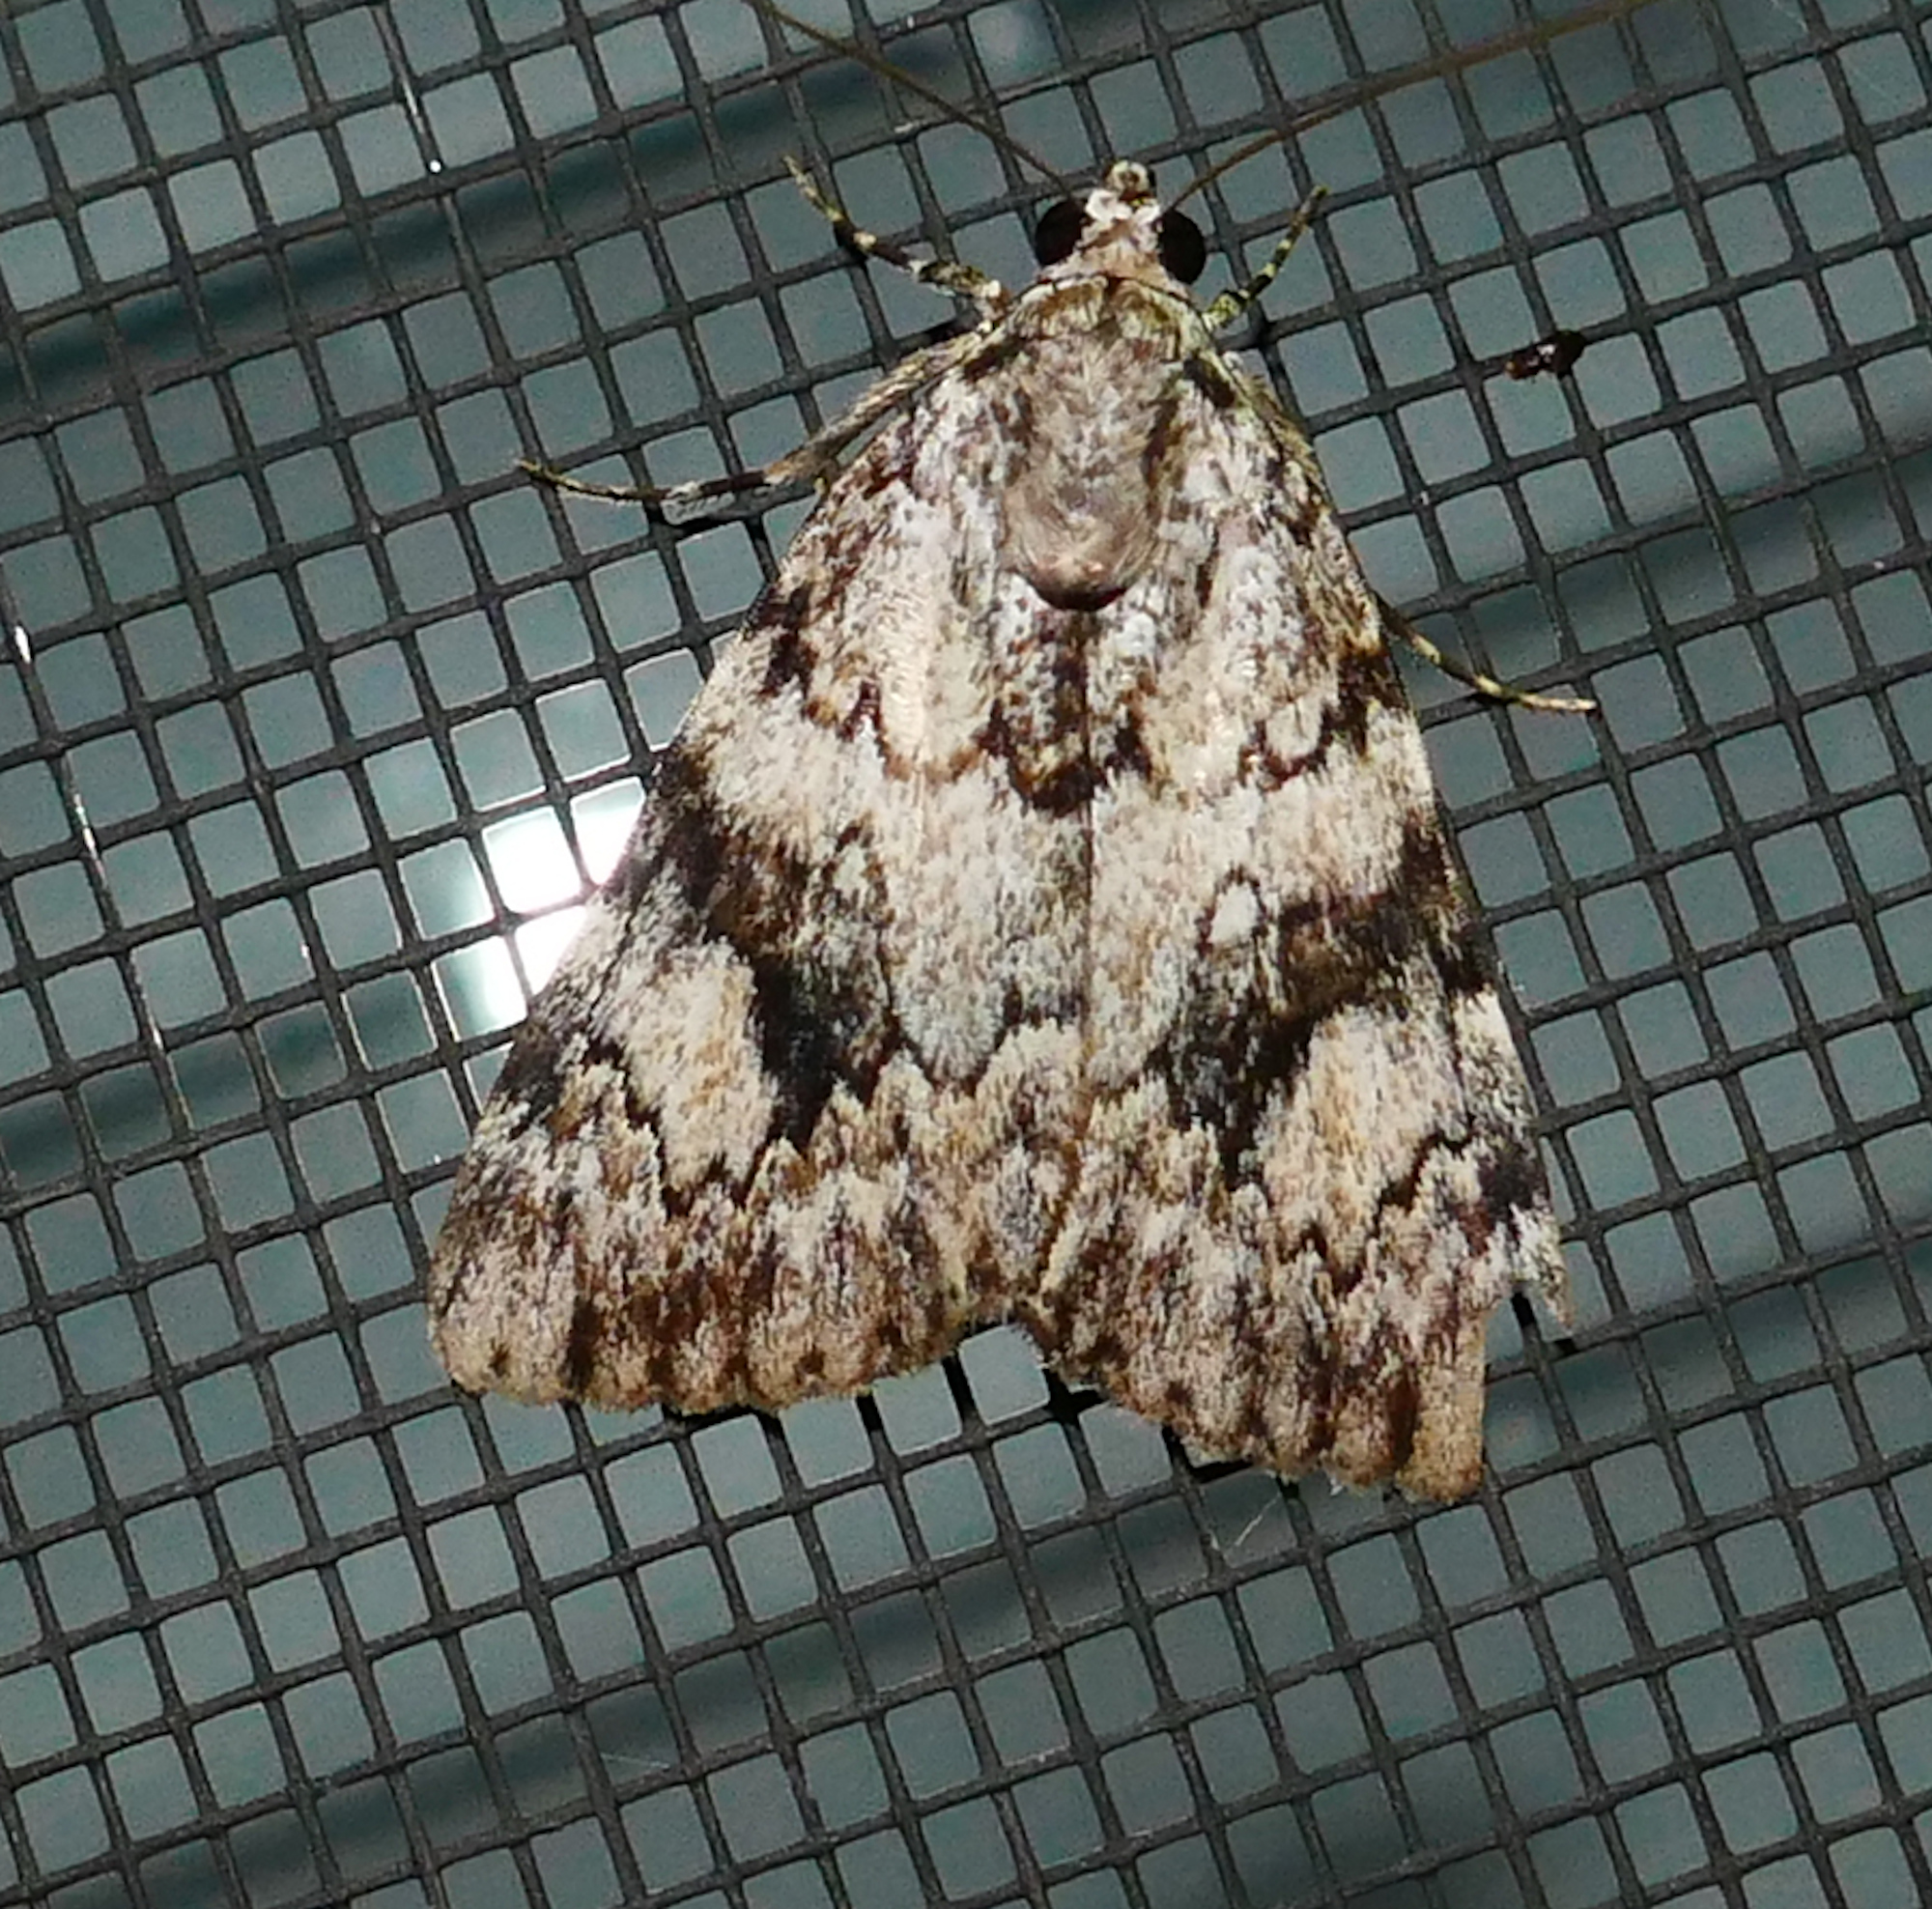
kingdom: Animalia
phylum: Arthropoda
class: Insecta
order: Lepidoptera
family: Erebidae
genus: Catocala
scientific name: Catocala amica
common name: Girlfriend underwing
